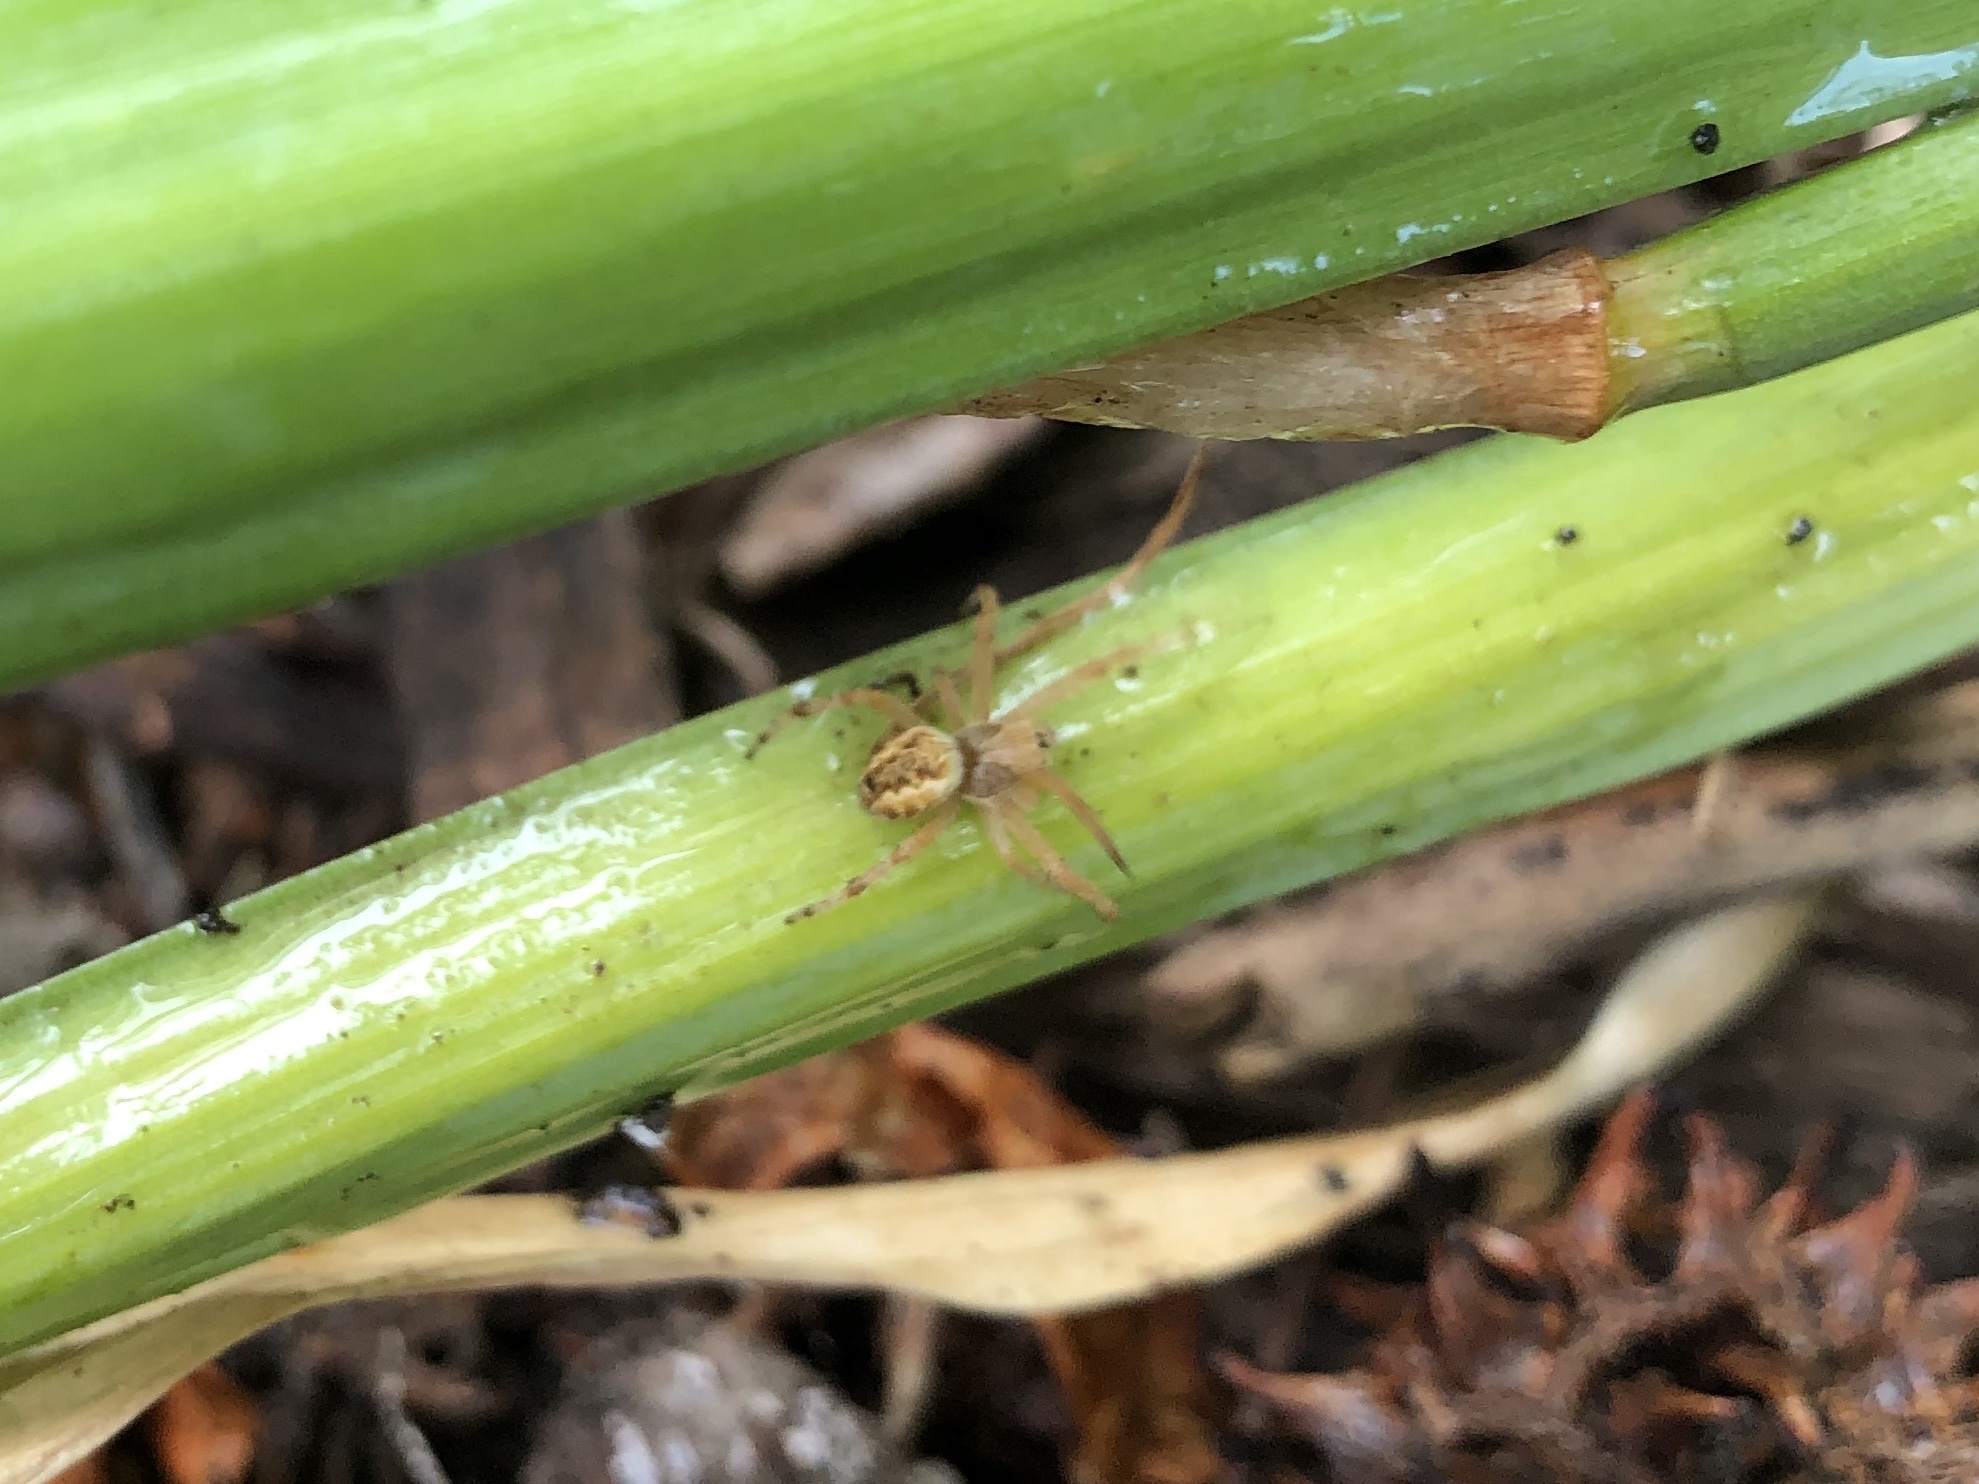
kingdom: Animalia
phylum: Arthropoda
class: Arachnida
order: Araneae
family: Araneidae
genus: Salsa
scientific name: Salsa fuliginata
